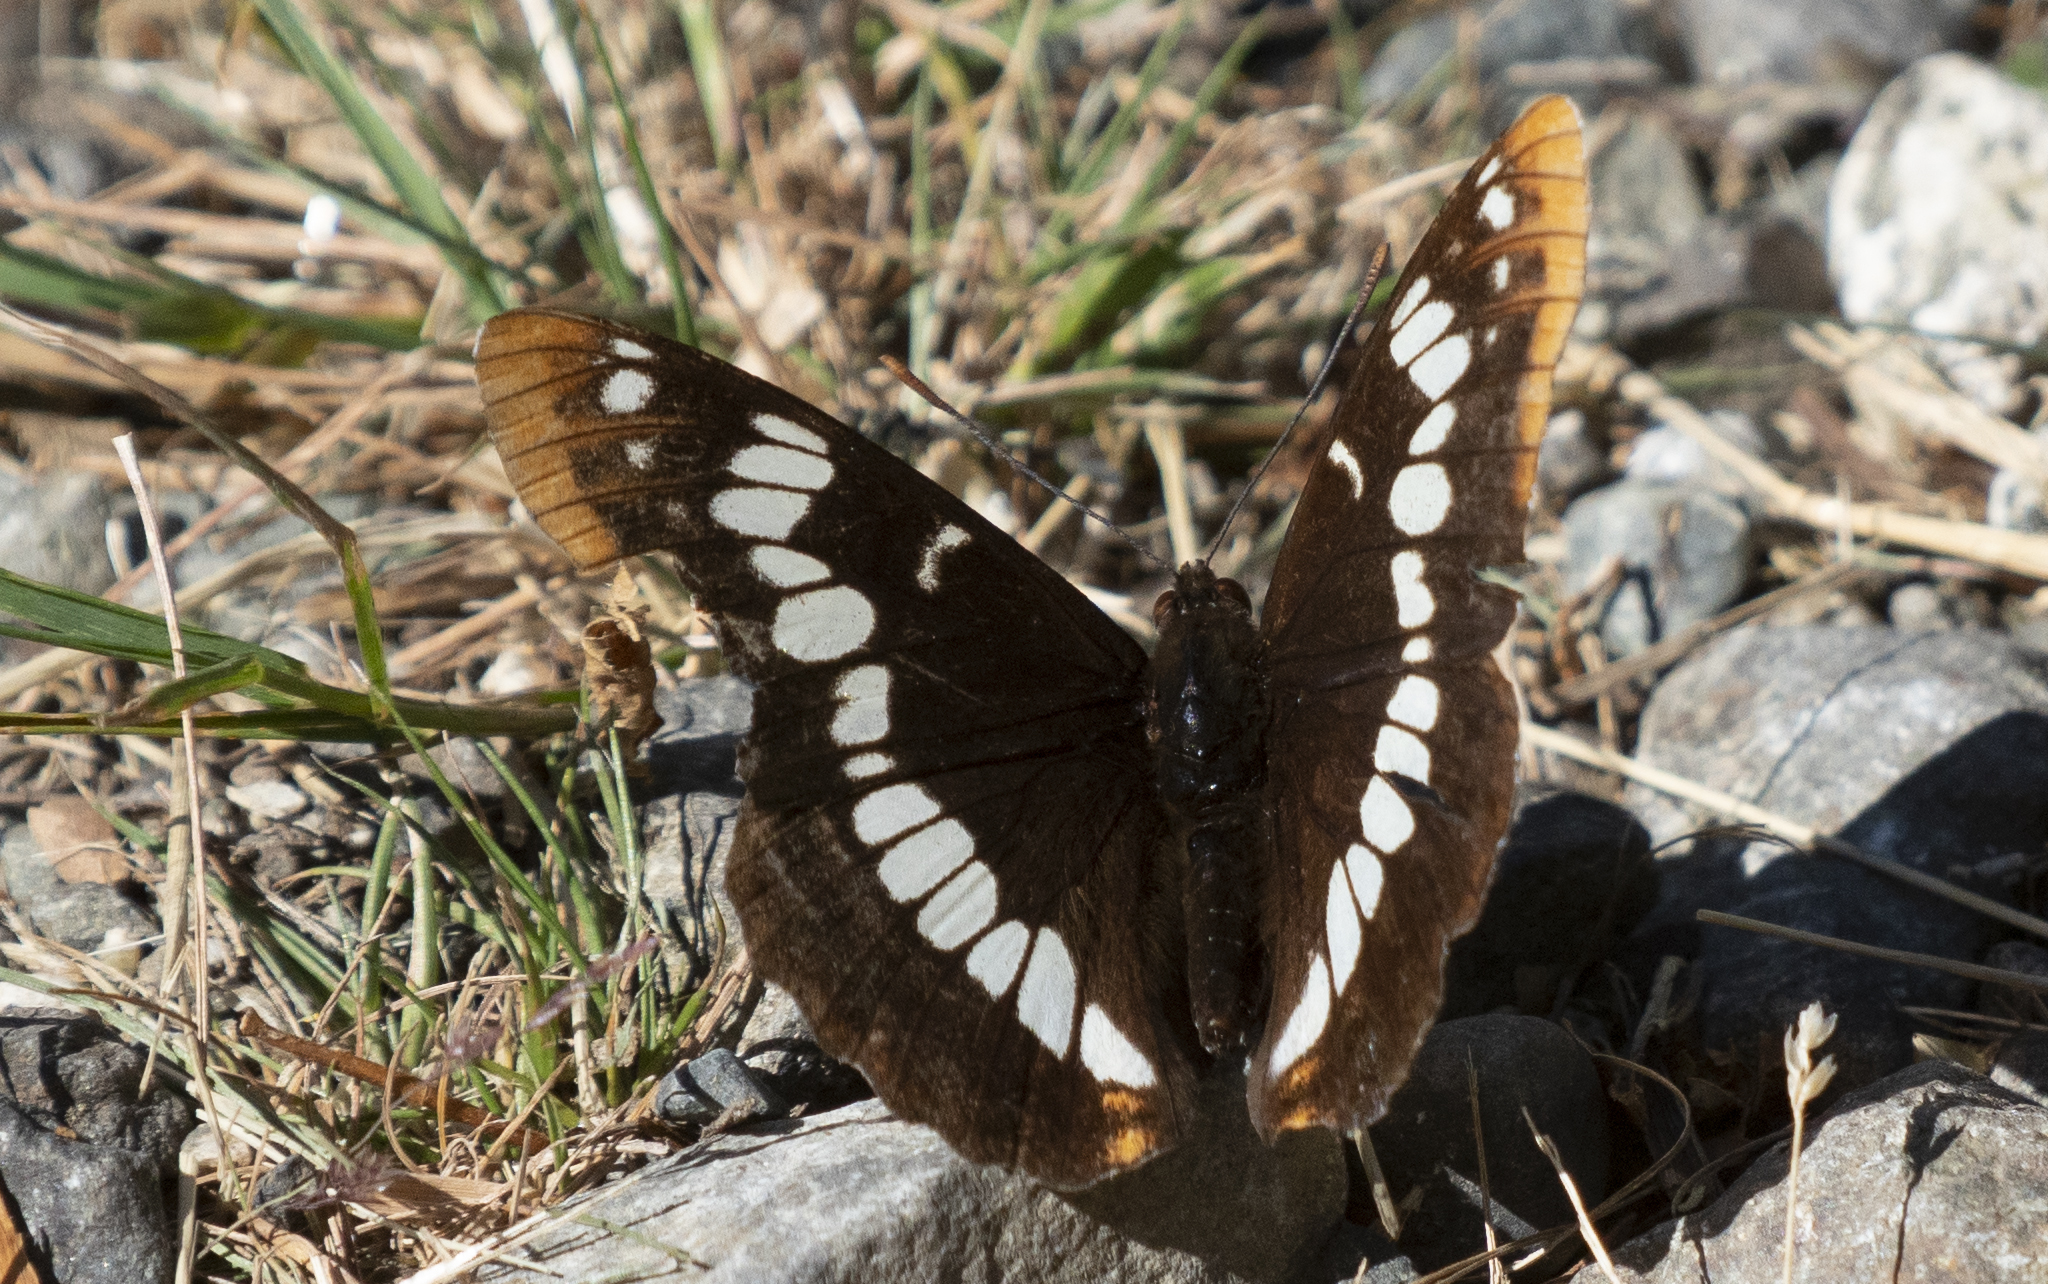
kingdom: Animalia
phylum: Arthropoda
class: Insecta
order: Lepidoptera
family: Nymphalidae
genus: Limenitis
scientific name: Limenitis lorquini
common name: Lorquin's admiral
